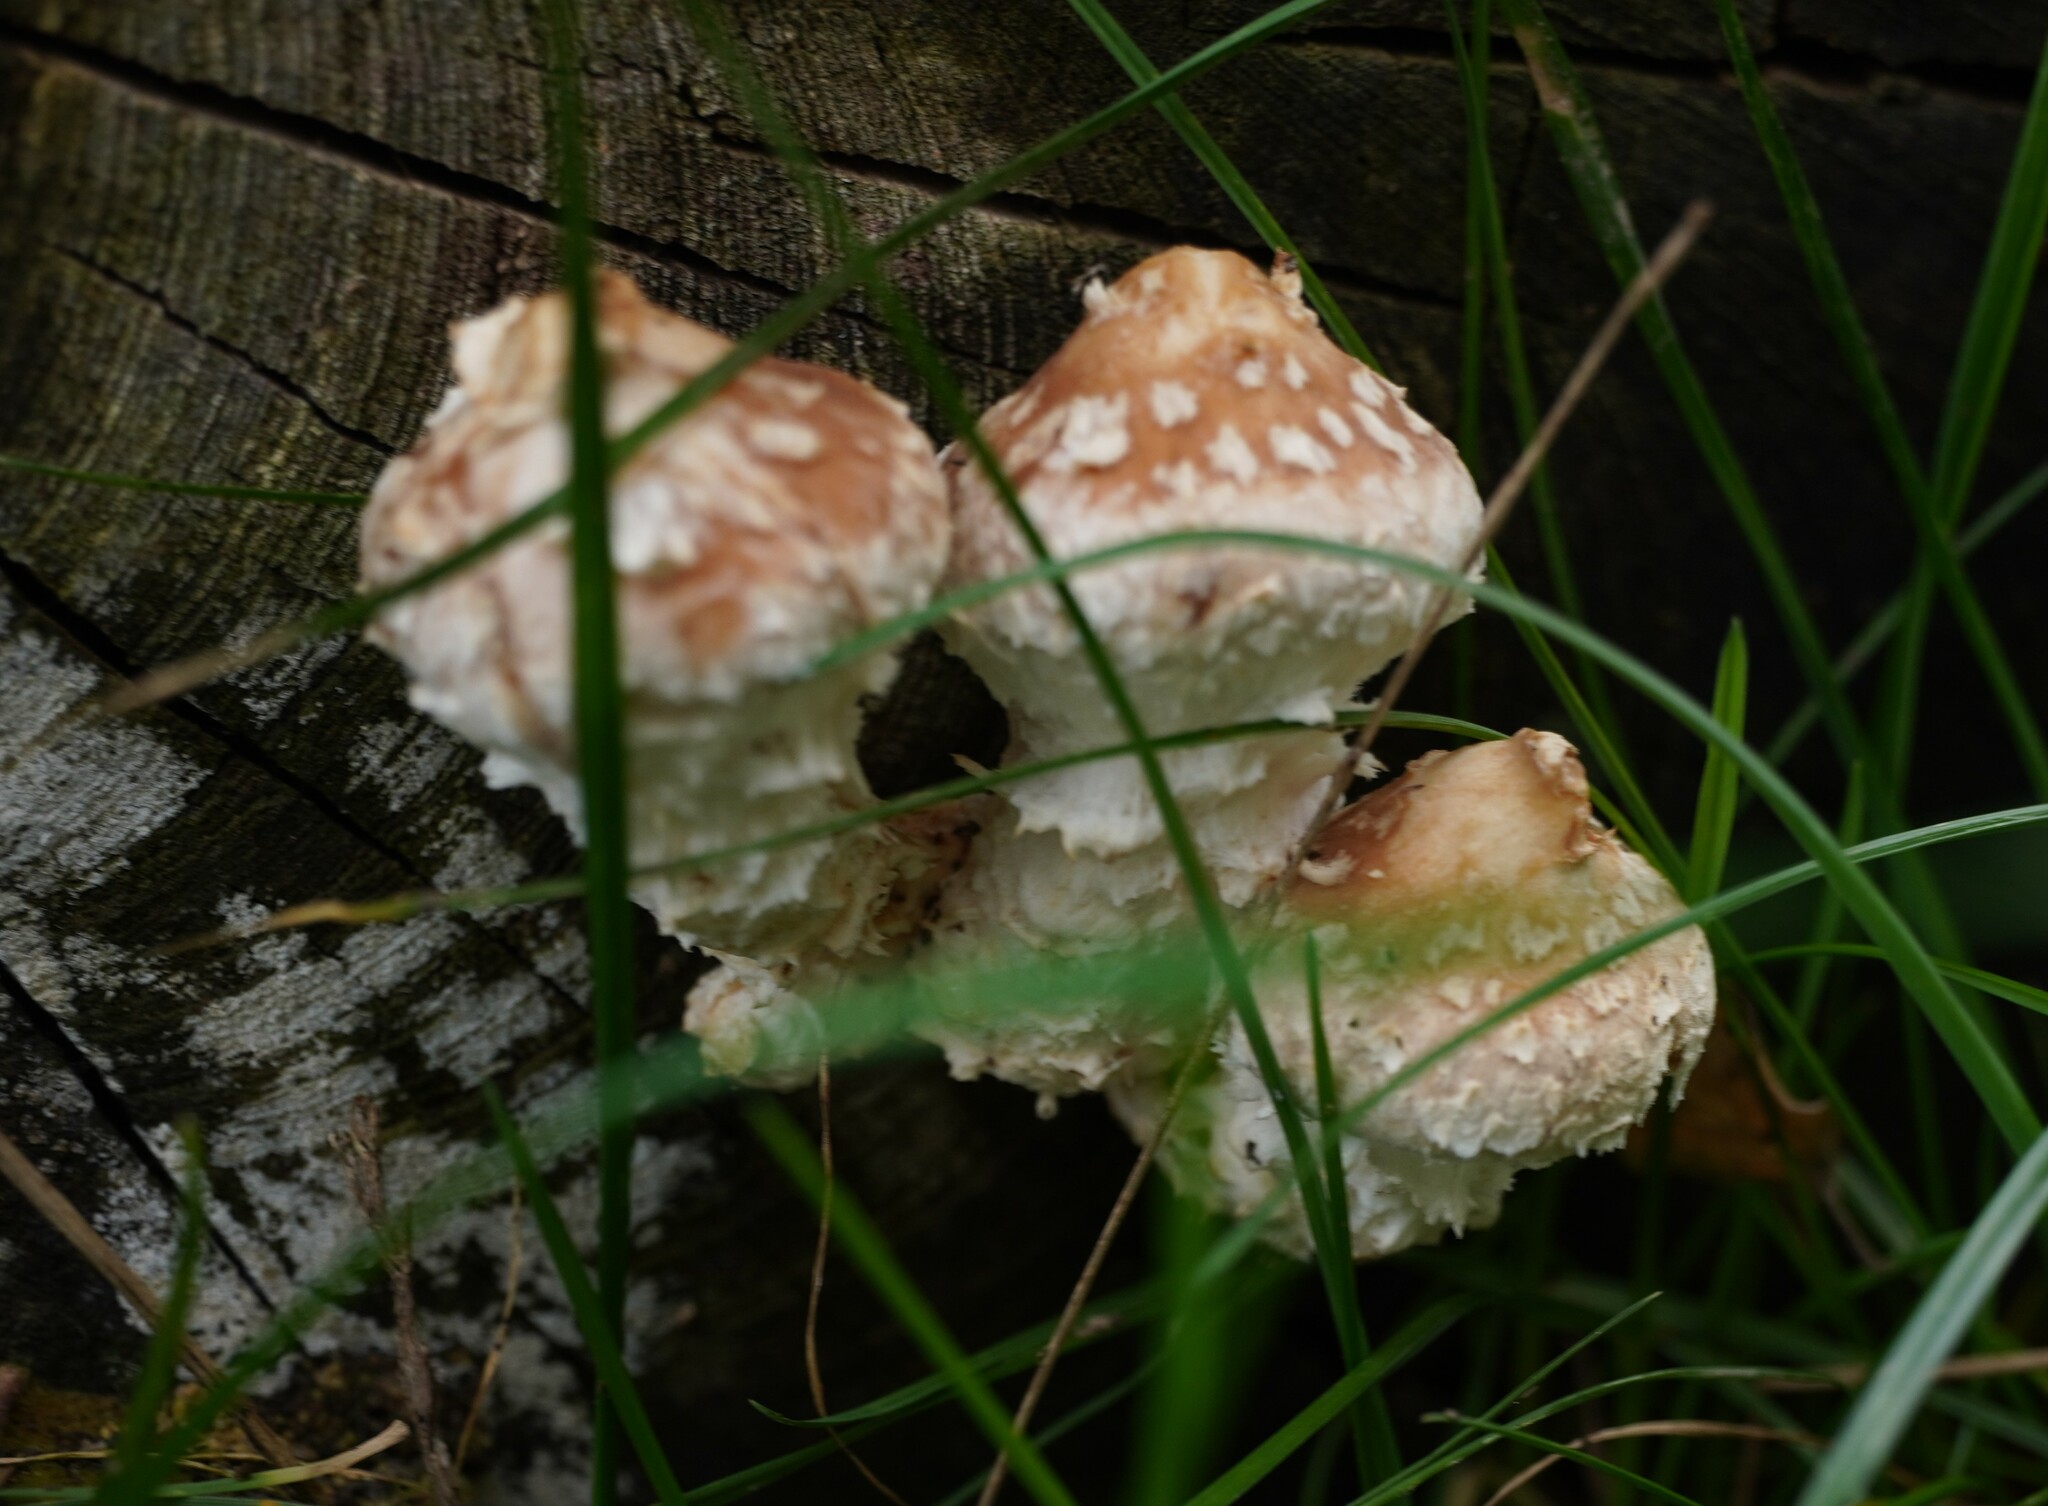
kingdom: Fungi
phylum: Basidiomycota
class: Agaricomycetes
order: Agaricales
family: Strophariaceae
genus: Pholiota
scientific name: Pholiota populnea
